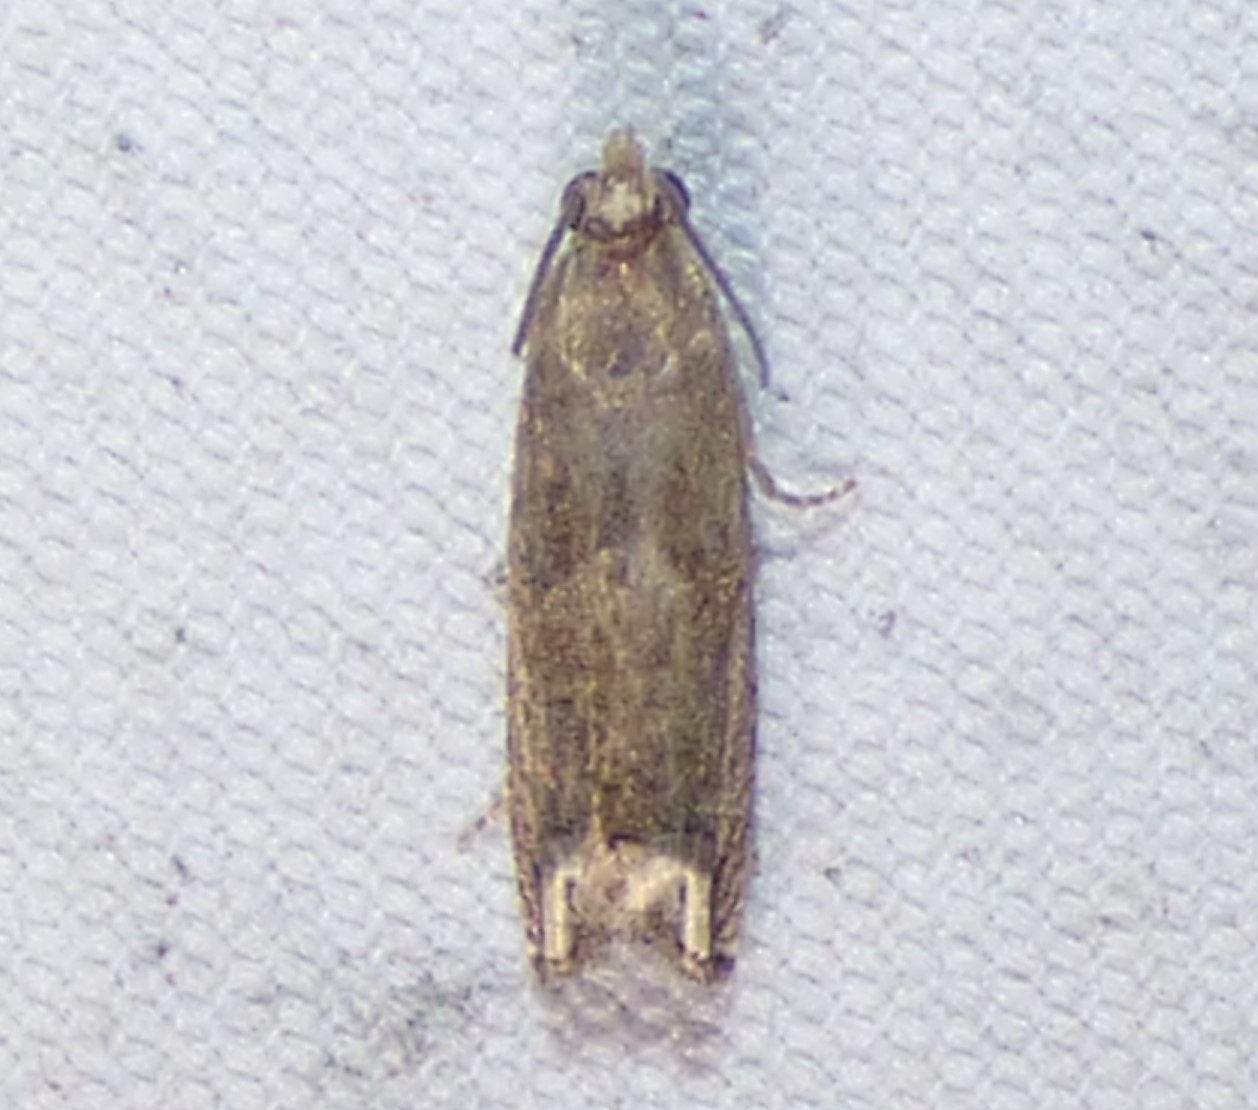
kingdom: Animalia
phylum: Arthropoda
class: Insecta
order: Lepidoptera
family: Tortricidae
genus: Epiblema
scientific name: Epiblema strenuana
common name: Ragweed borer moth
